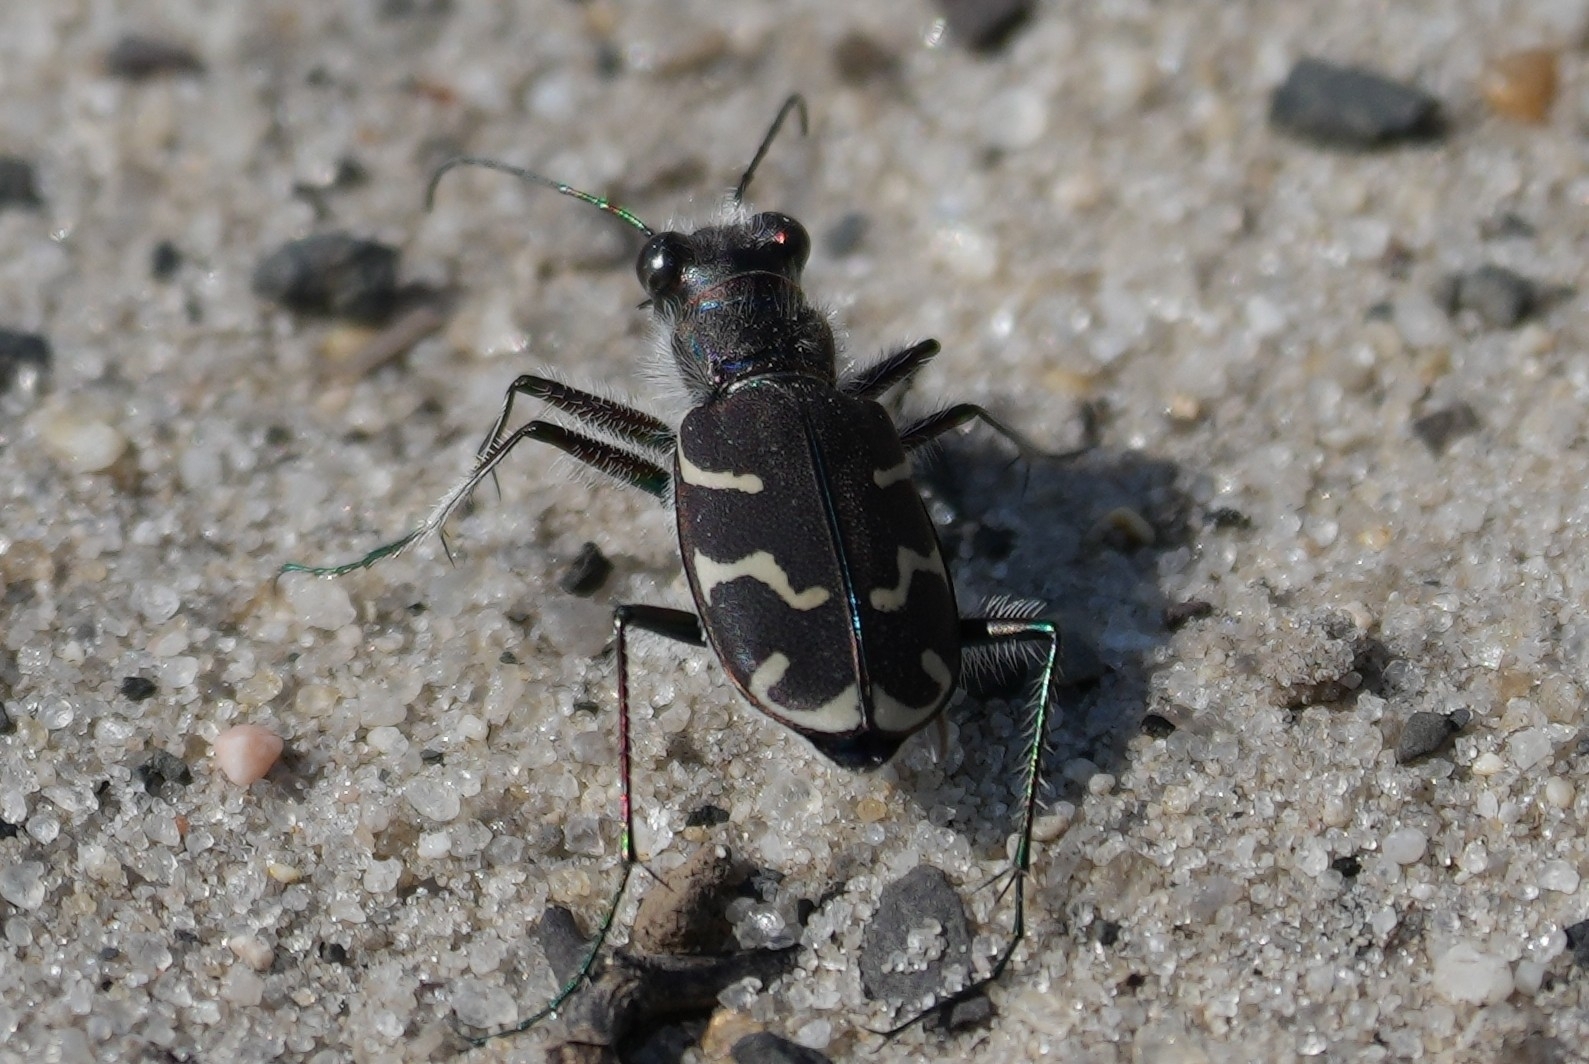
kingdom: Animalia
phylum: Arthropoda
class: Insecta
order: Coleoptera
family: Carabidae
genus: Cicindela
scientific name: Cicindela tranquebarica
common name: Oblique-lined tiger beetle
